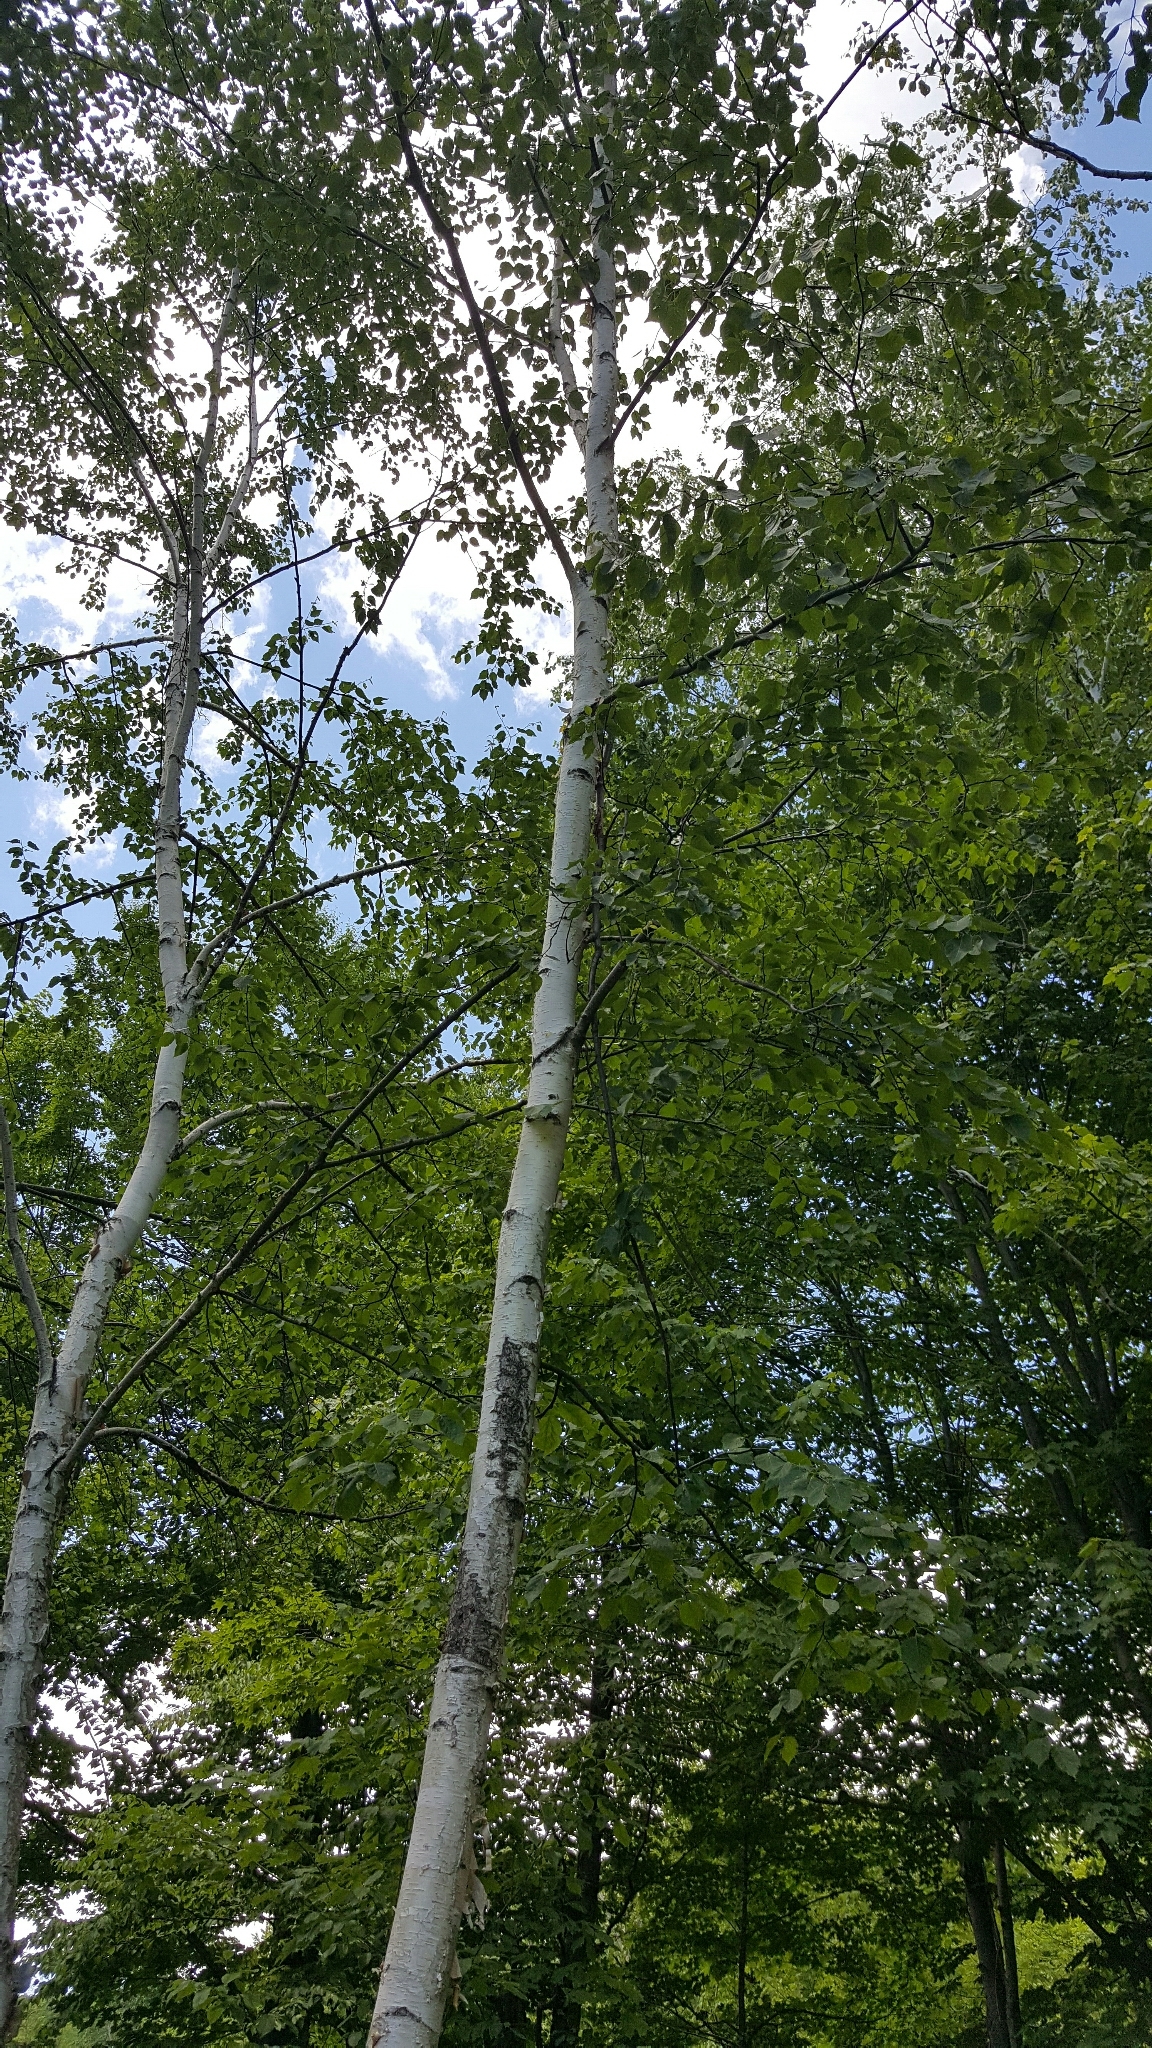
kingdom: Plantae
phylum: Tracheophyta
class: Magnoliopsida
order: Fagales
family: Betulaceae
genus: Betula
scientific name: Betula papyrifera
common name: Paper birch
